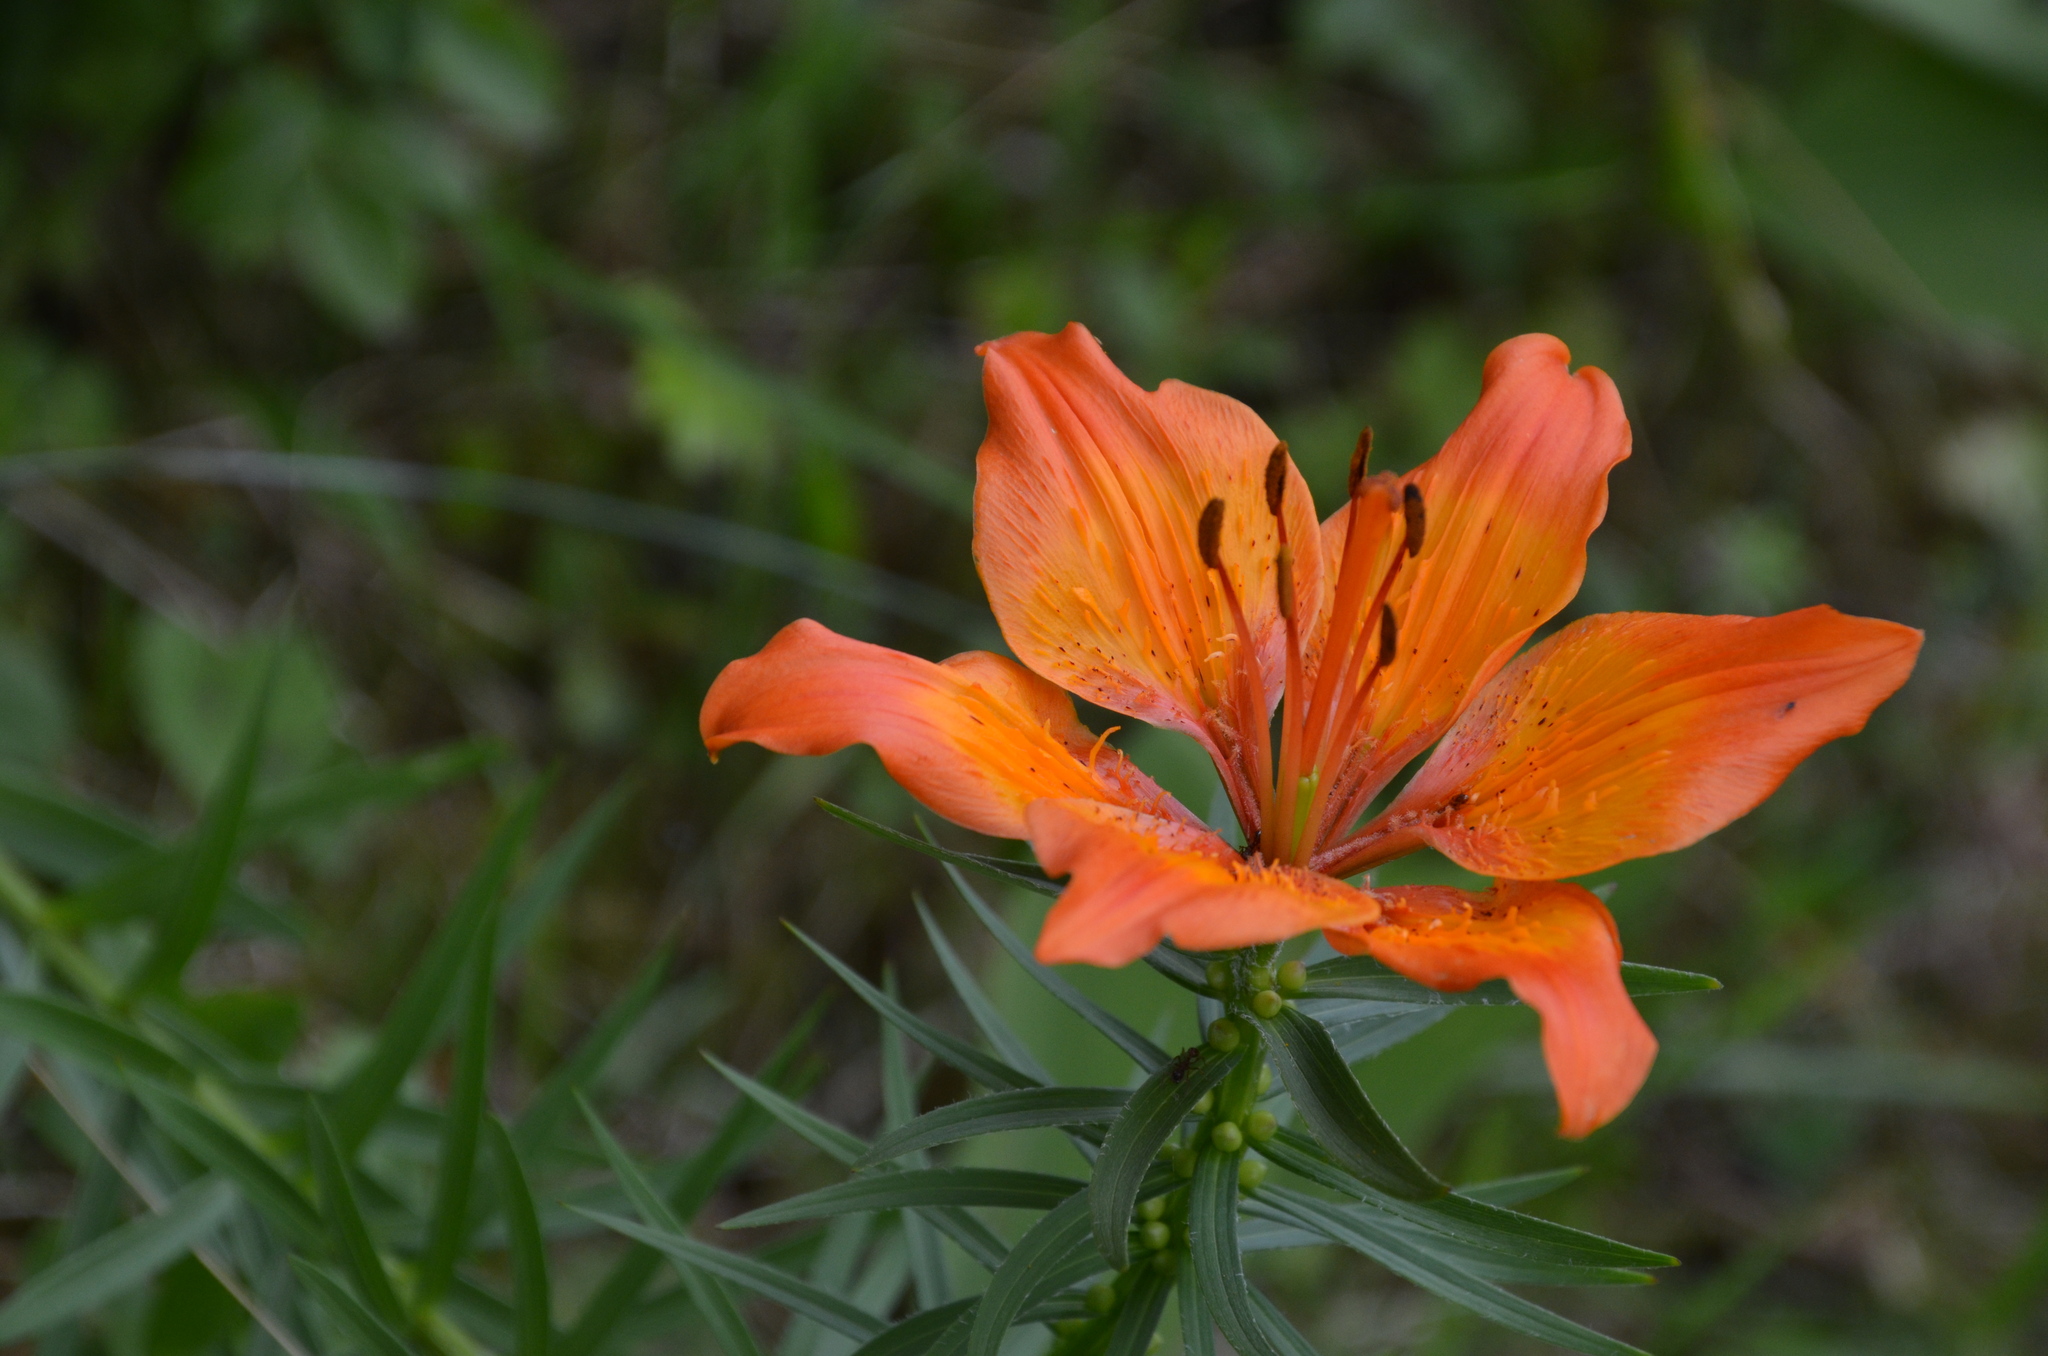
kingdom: Plantae
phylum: Tracheophyta
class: Liliopsida
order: Liliales
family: Liliaceae
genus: Lilium
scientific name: Lilium bulbiferum
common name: Orange lily
